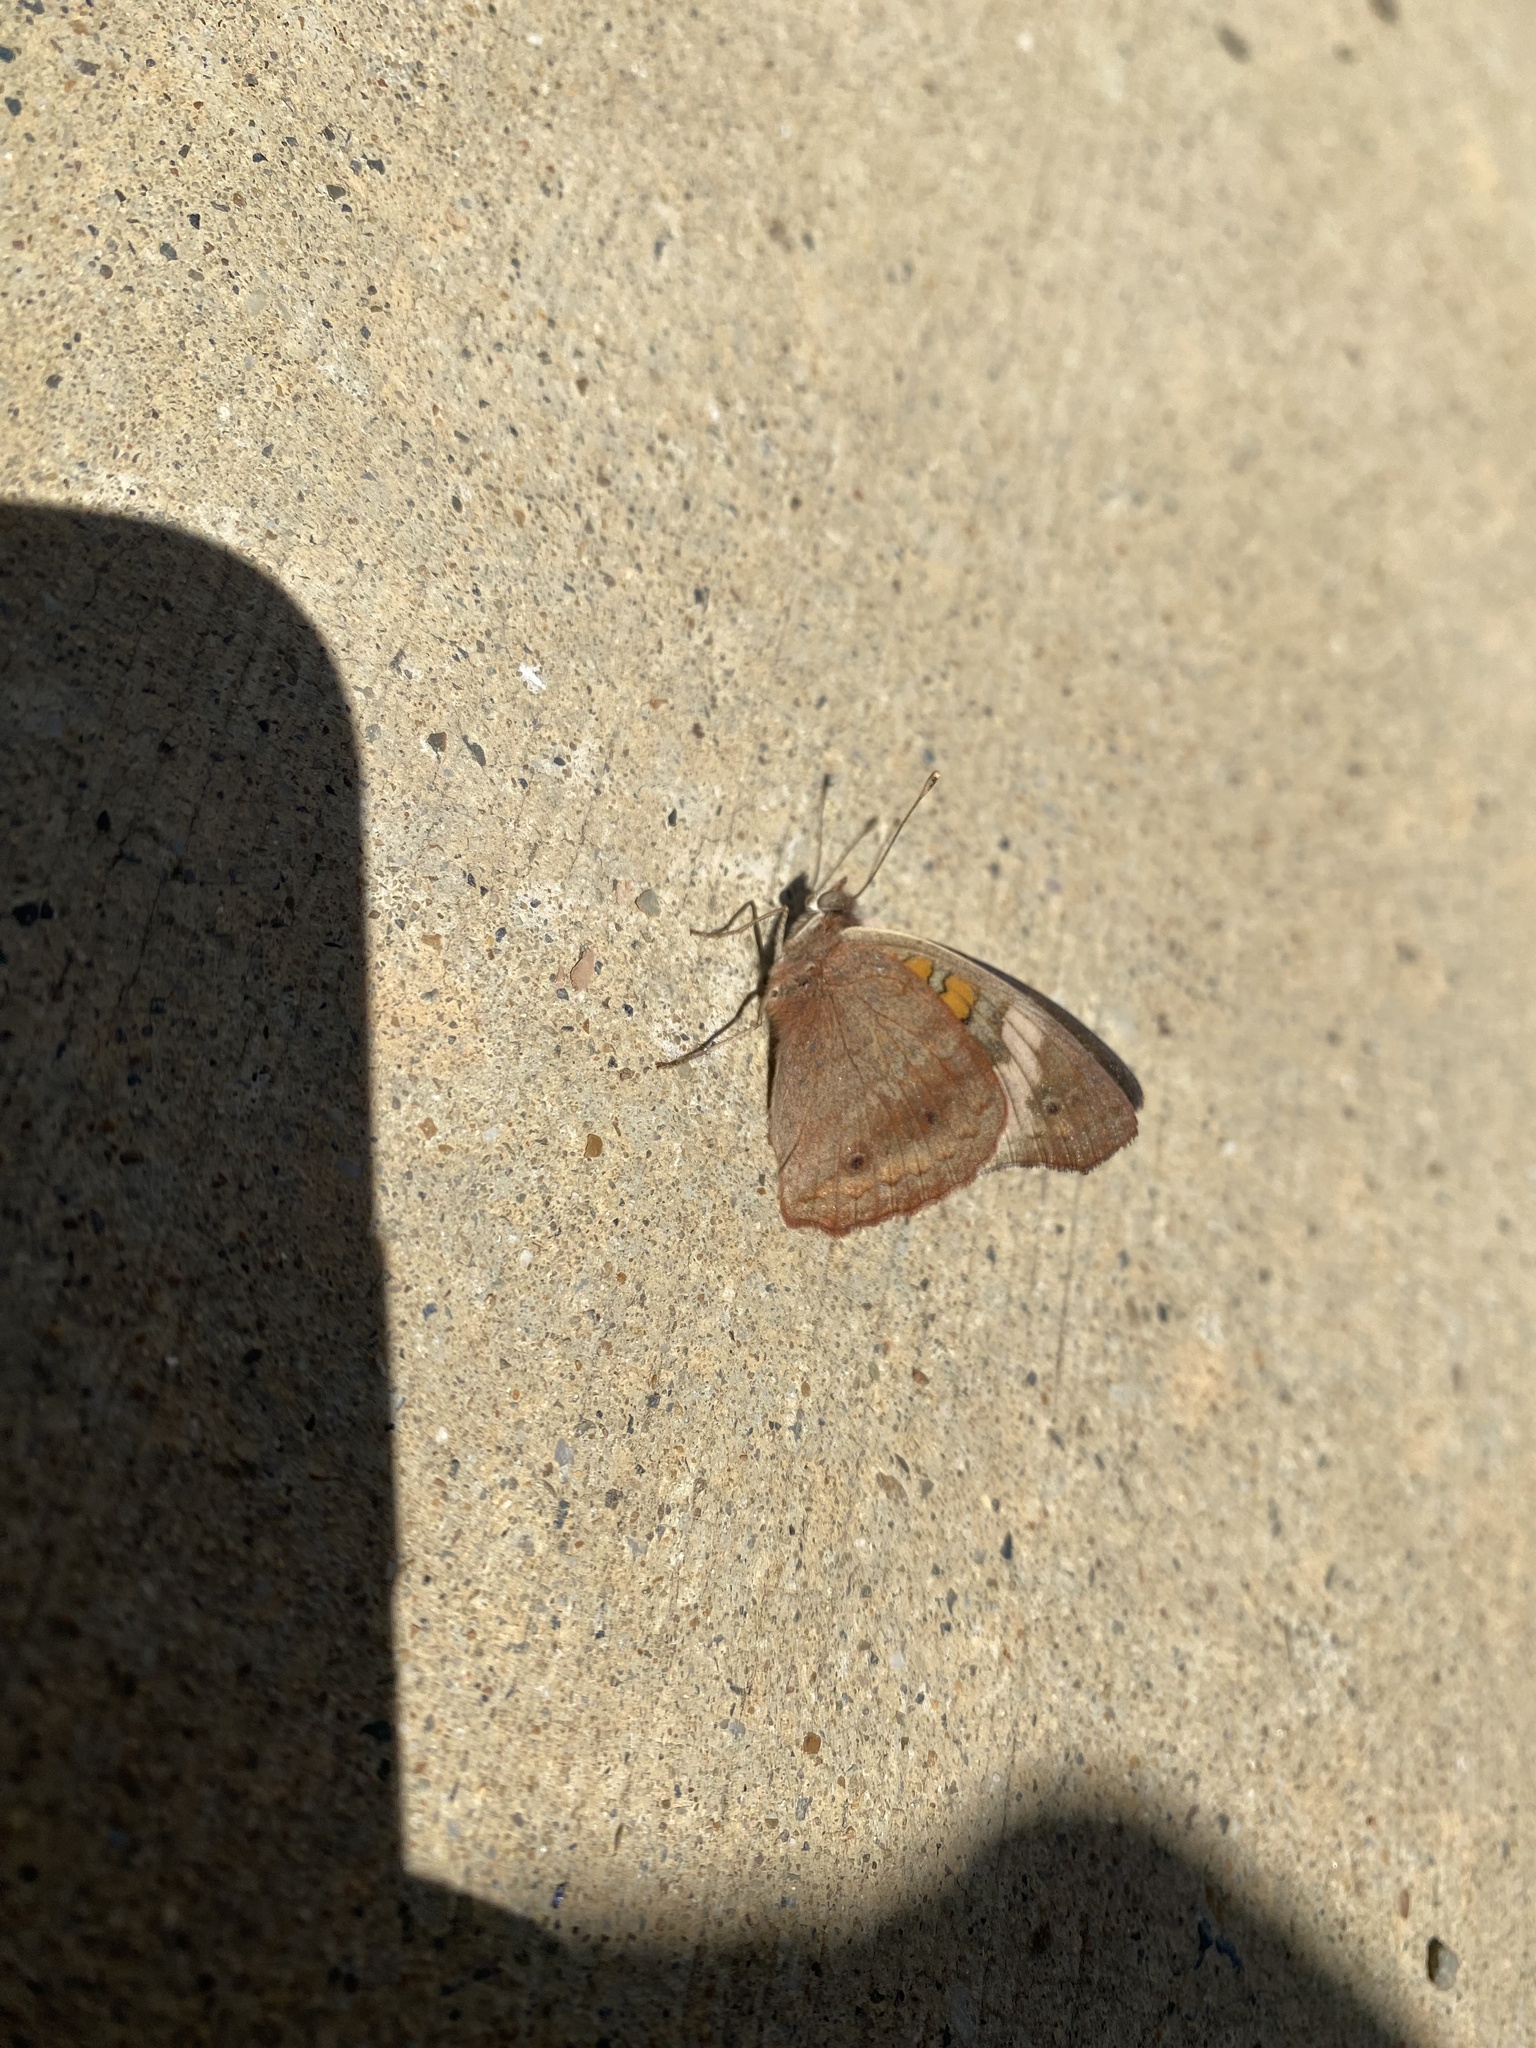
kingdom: Animalia
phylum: Arthropoda
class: Insecta
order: Lepidoptera
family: Nymphalidae
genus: Junonia
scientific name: Junonia coenia
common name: Common buckeye
